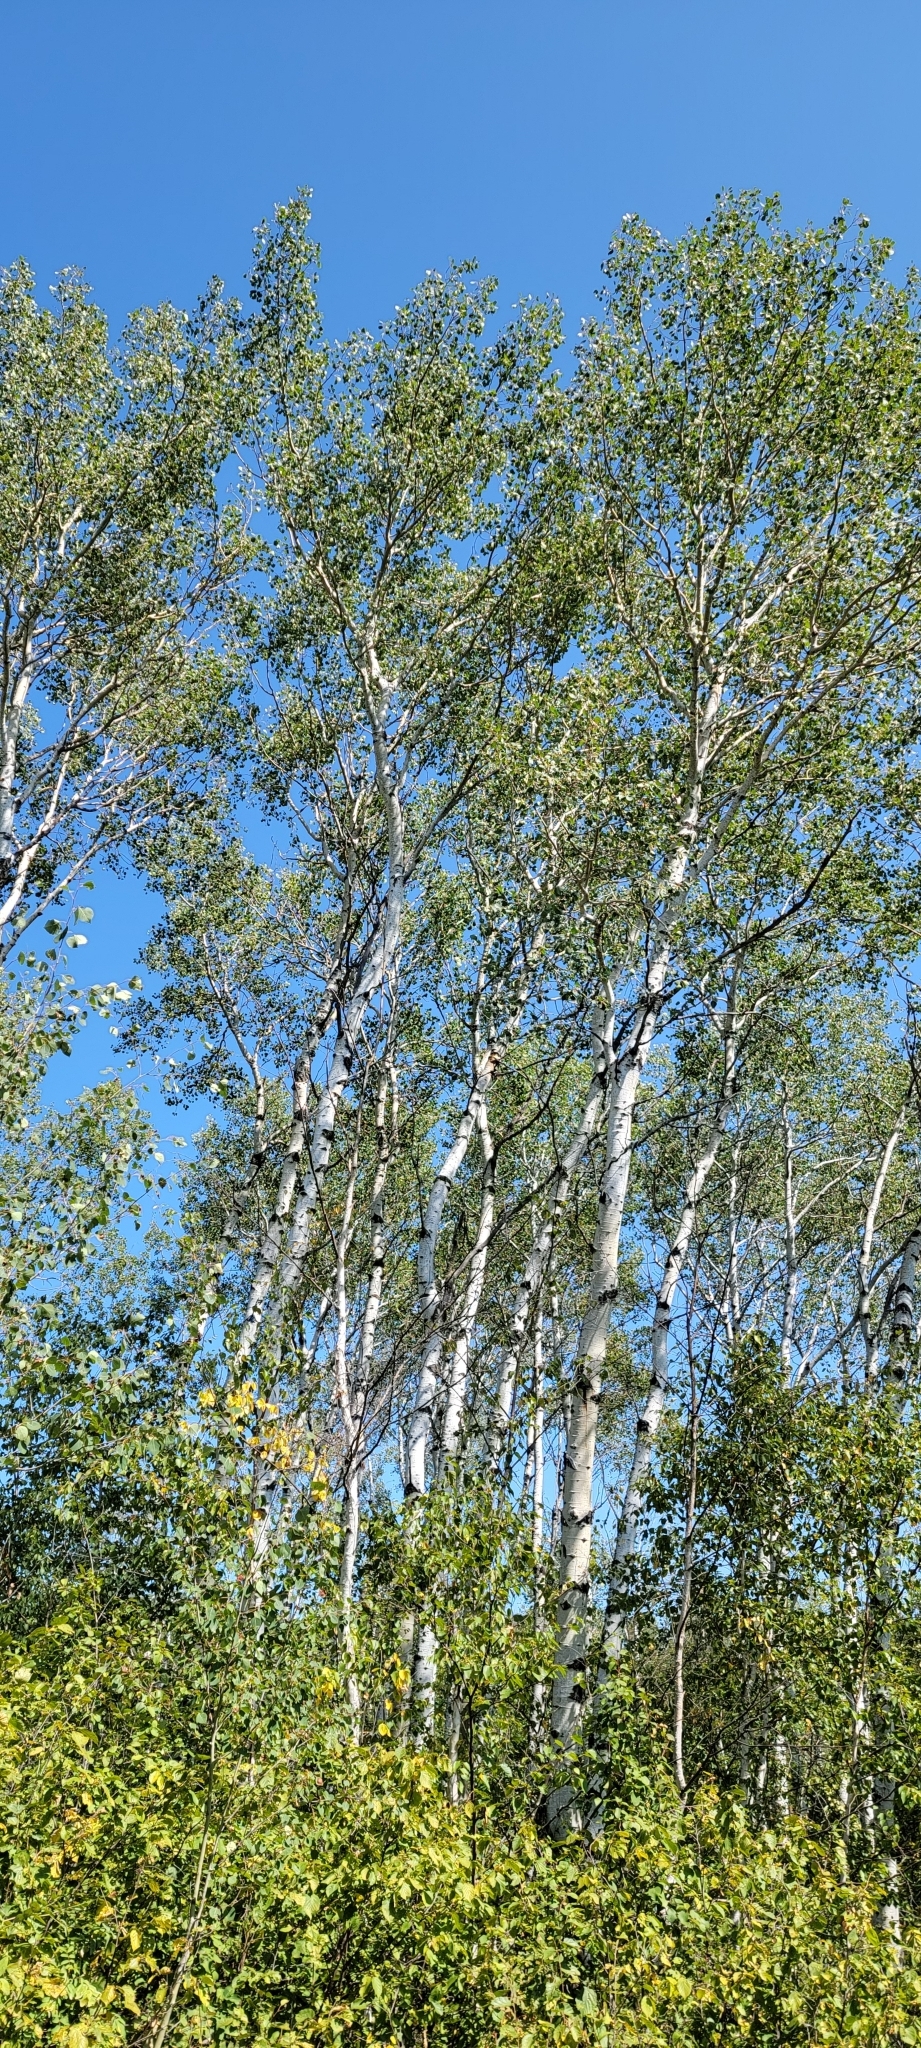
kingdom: Plantae
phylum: Tracheophyta
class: Magnoliopsida
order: Malpighiales
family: Salicaceae
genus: Populus
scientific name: Populus tremuloides
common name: Quaking aspen
